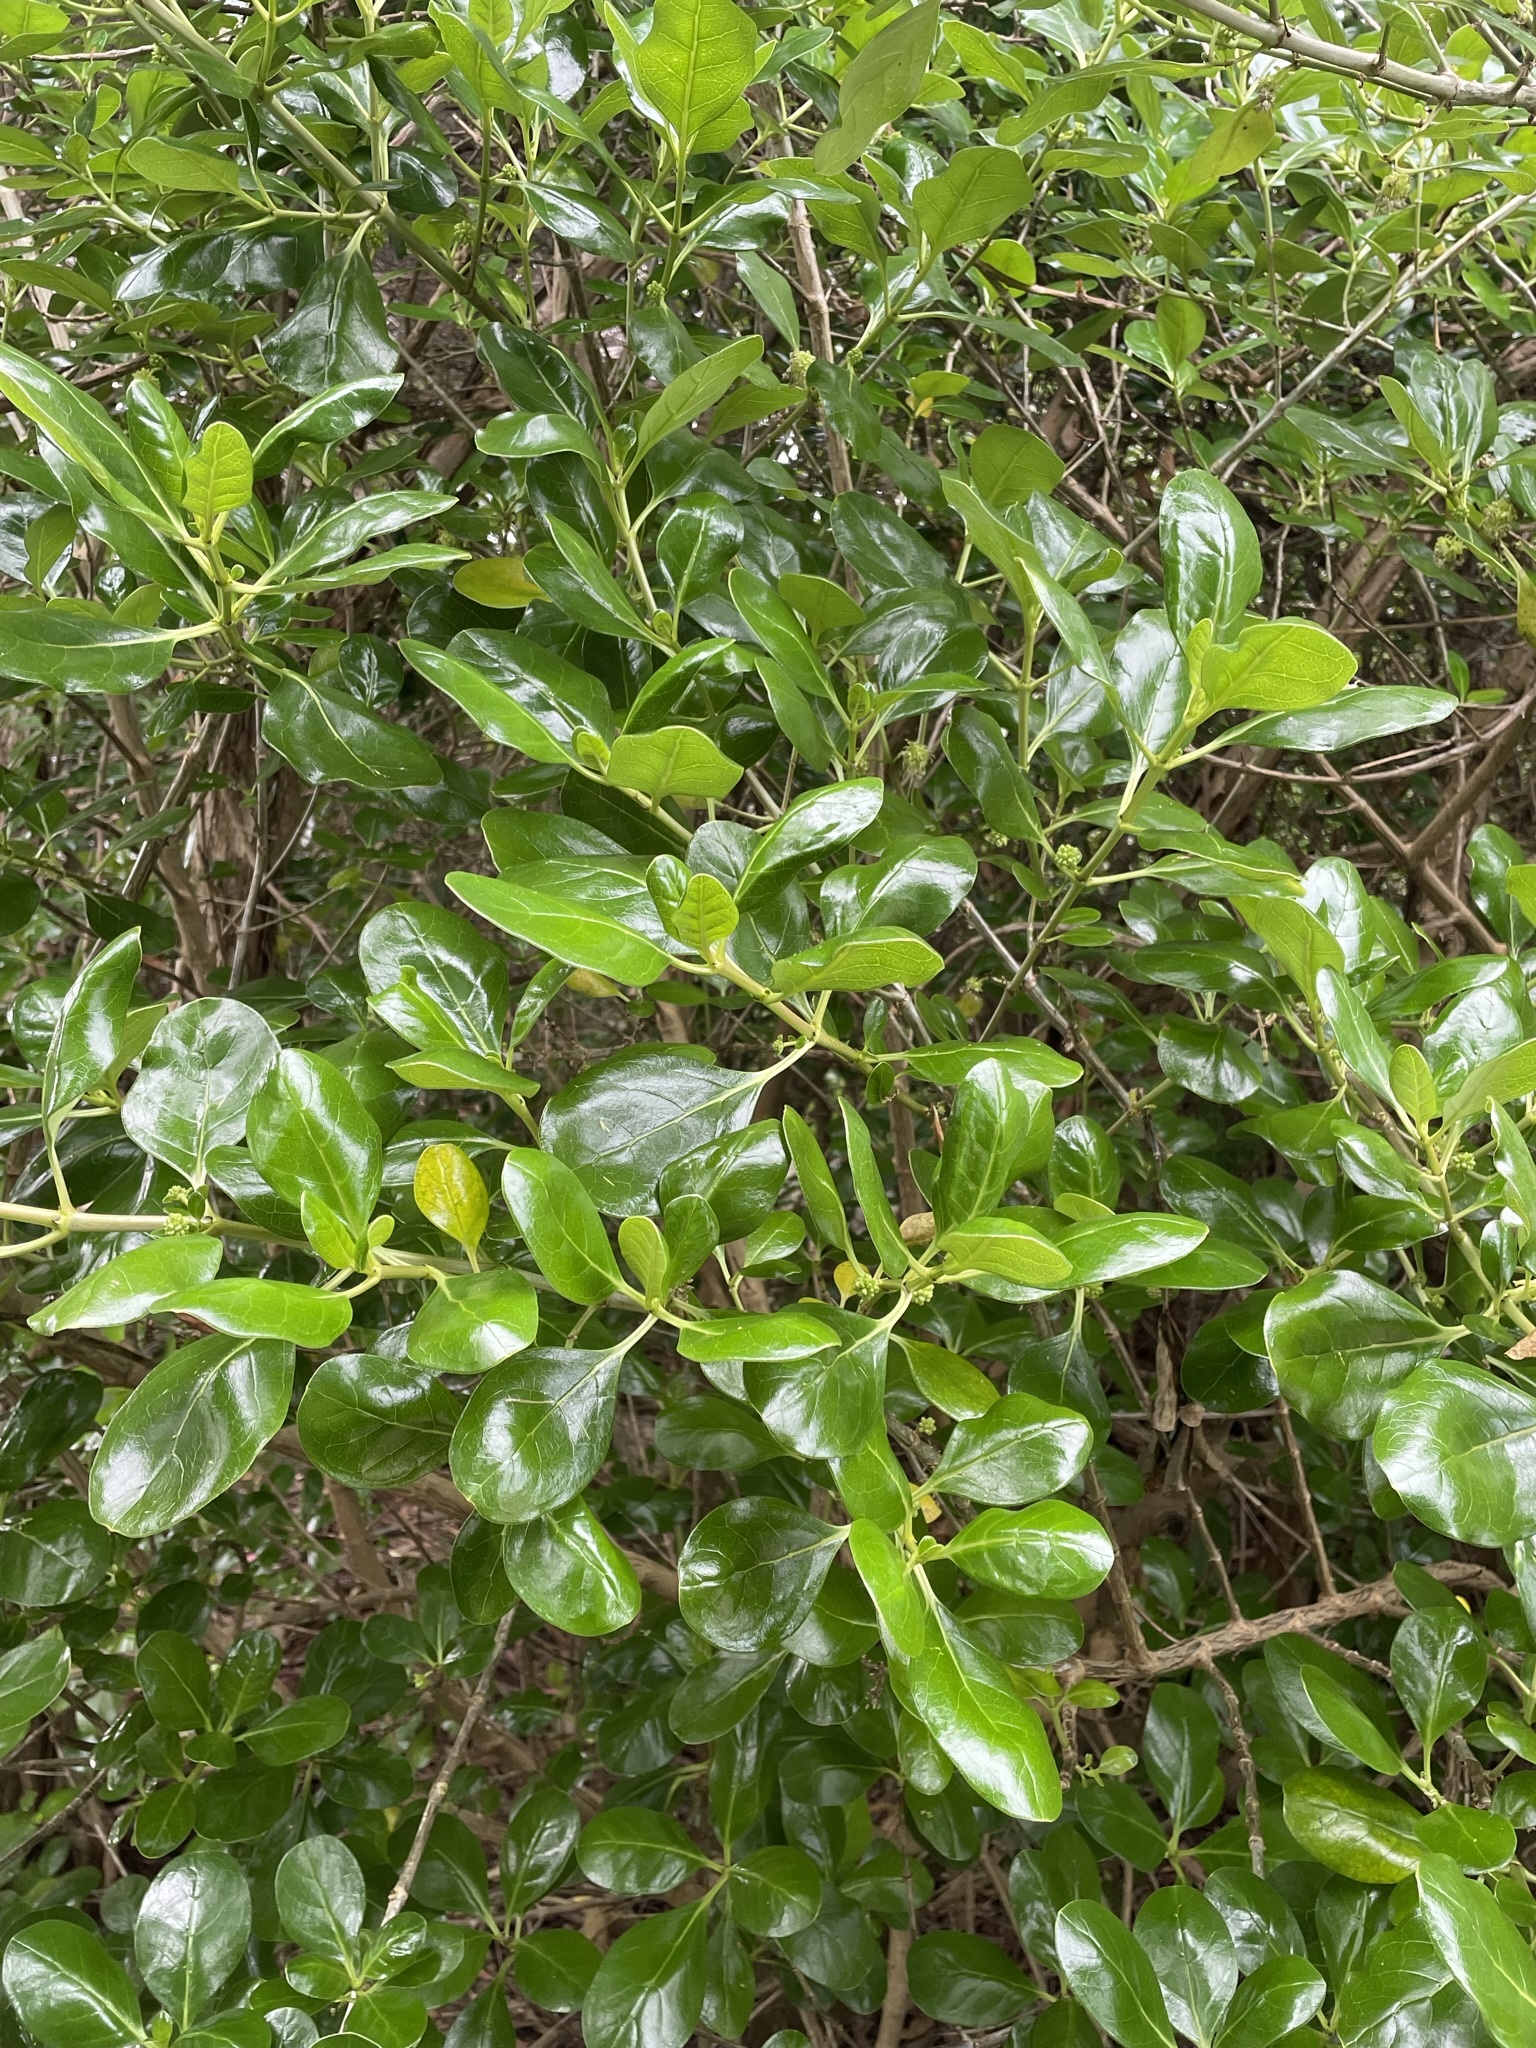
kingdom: Plantae
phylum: Tracheophyta
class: Magnoliopsida
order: Gentianales
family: Rubiaceae
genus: Coprosma
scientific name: Coprosma repens
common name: Tree bedstraw
